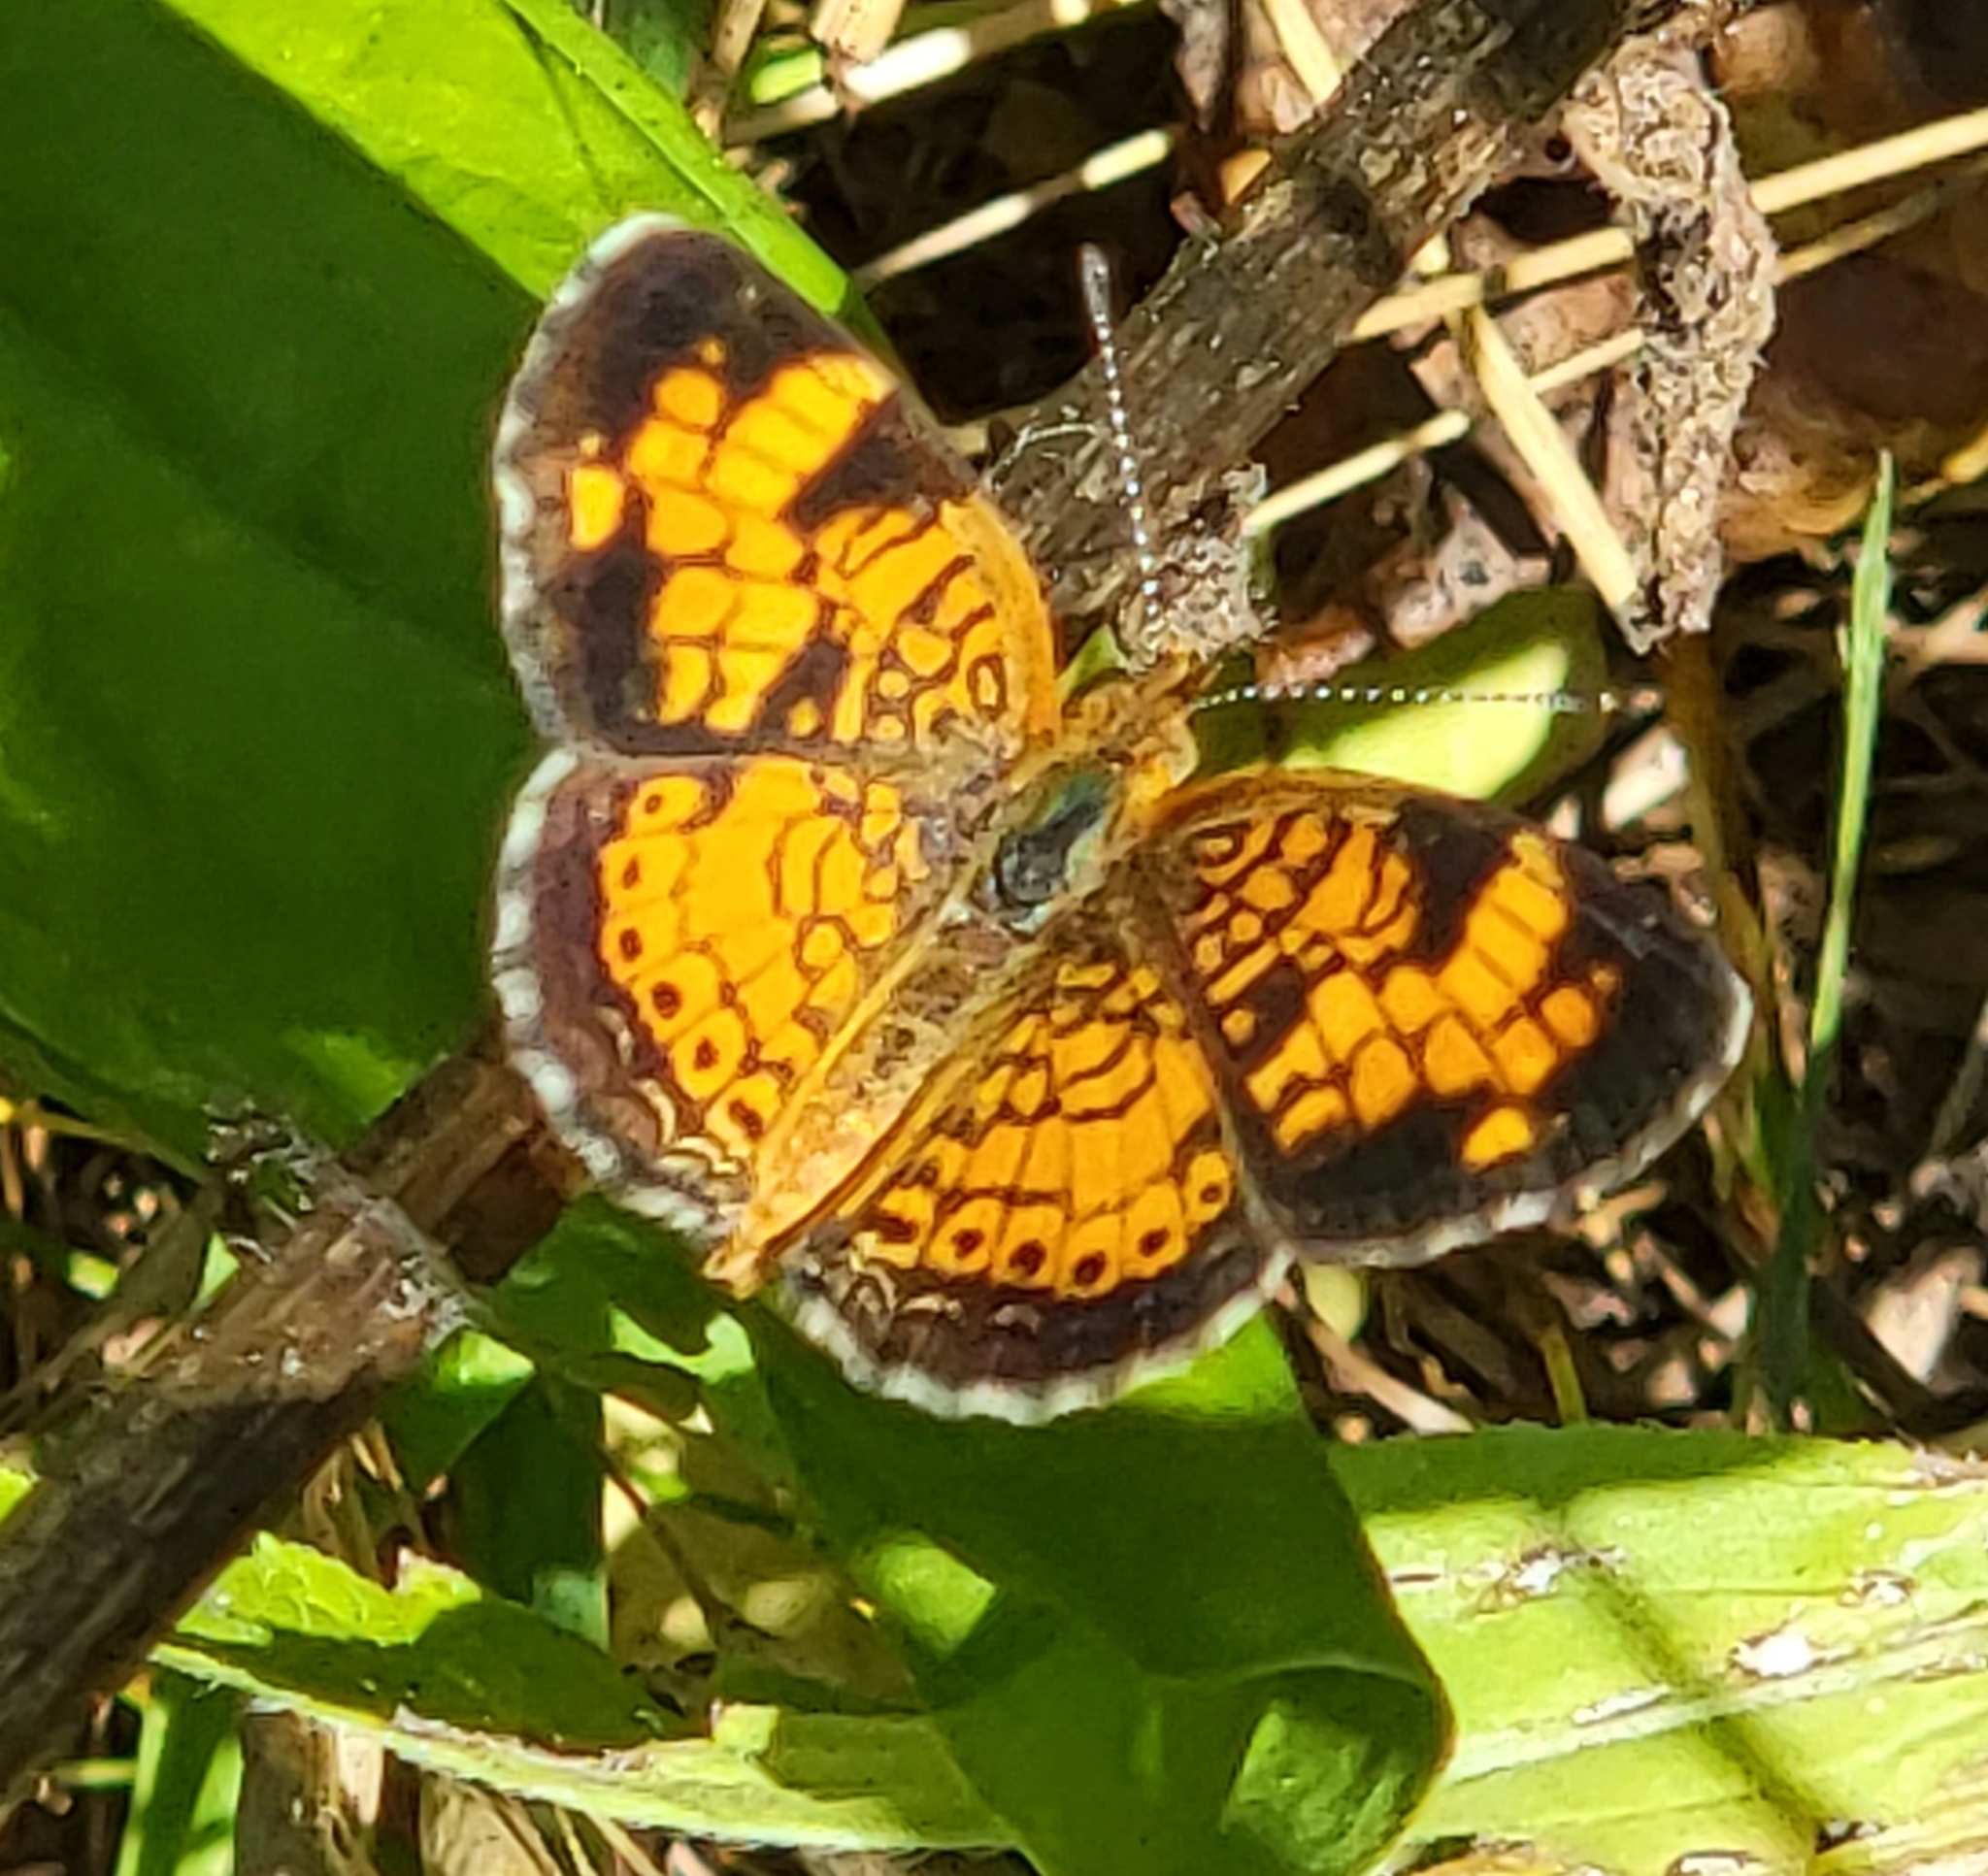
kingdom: Animalia
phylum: Arthropoda
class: Insecta
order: Lepidoptera
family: Nymphalidae
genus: Phyciodes
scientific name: Phyciodes tharos
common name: Pearl crescent
